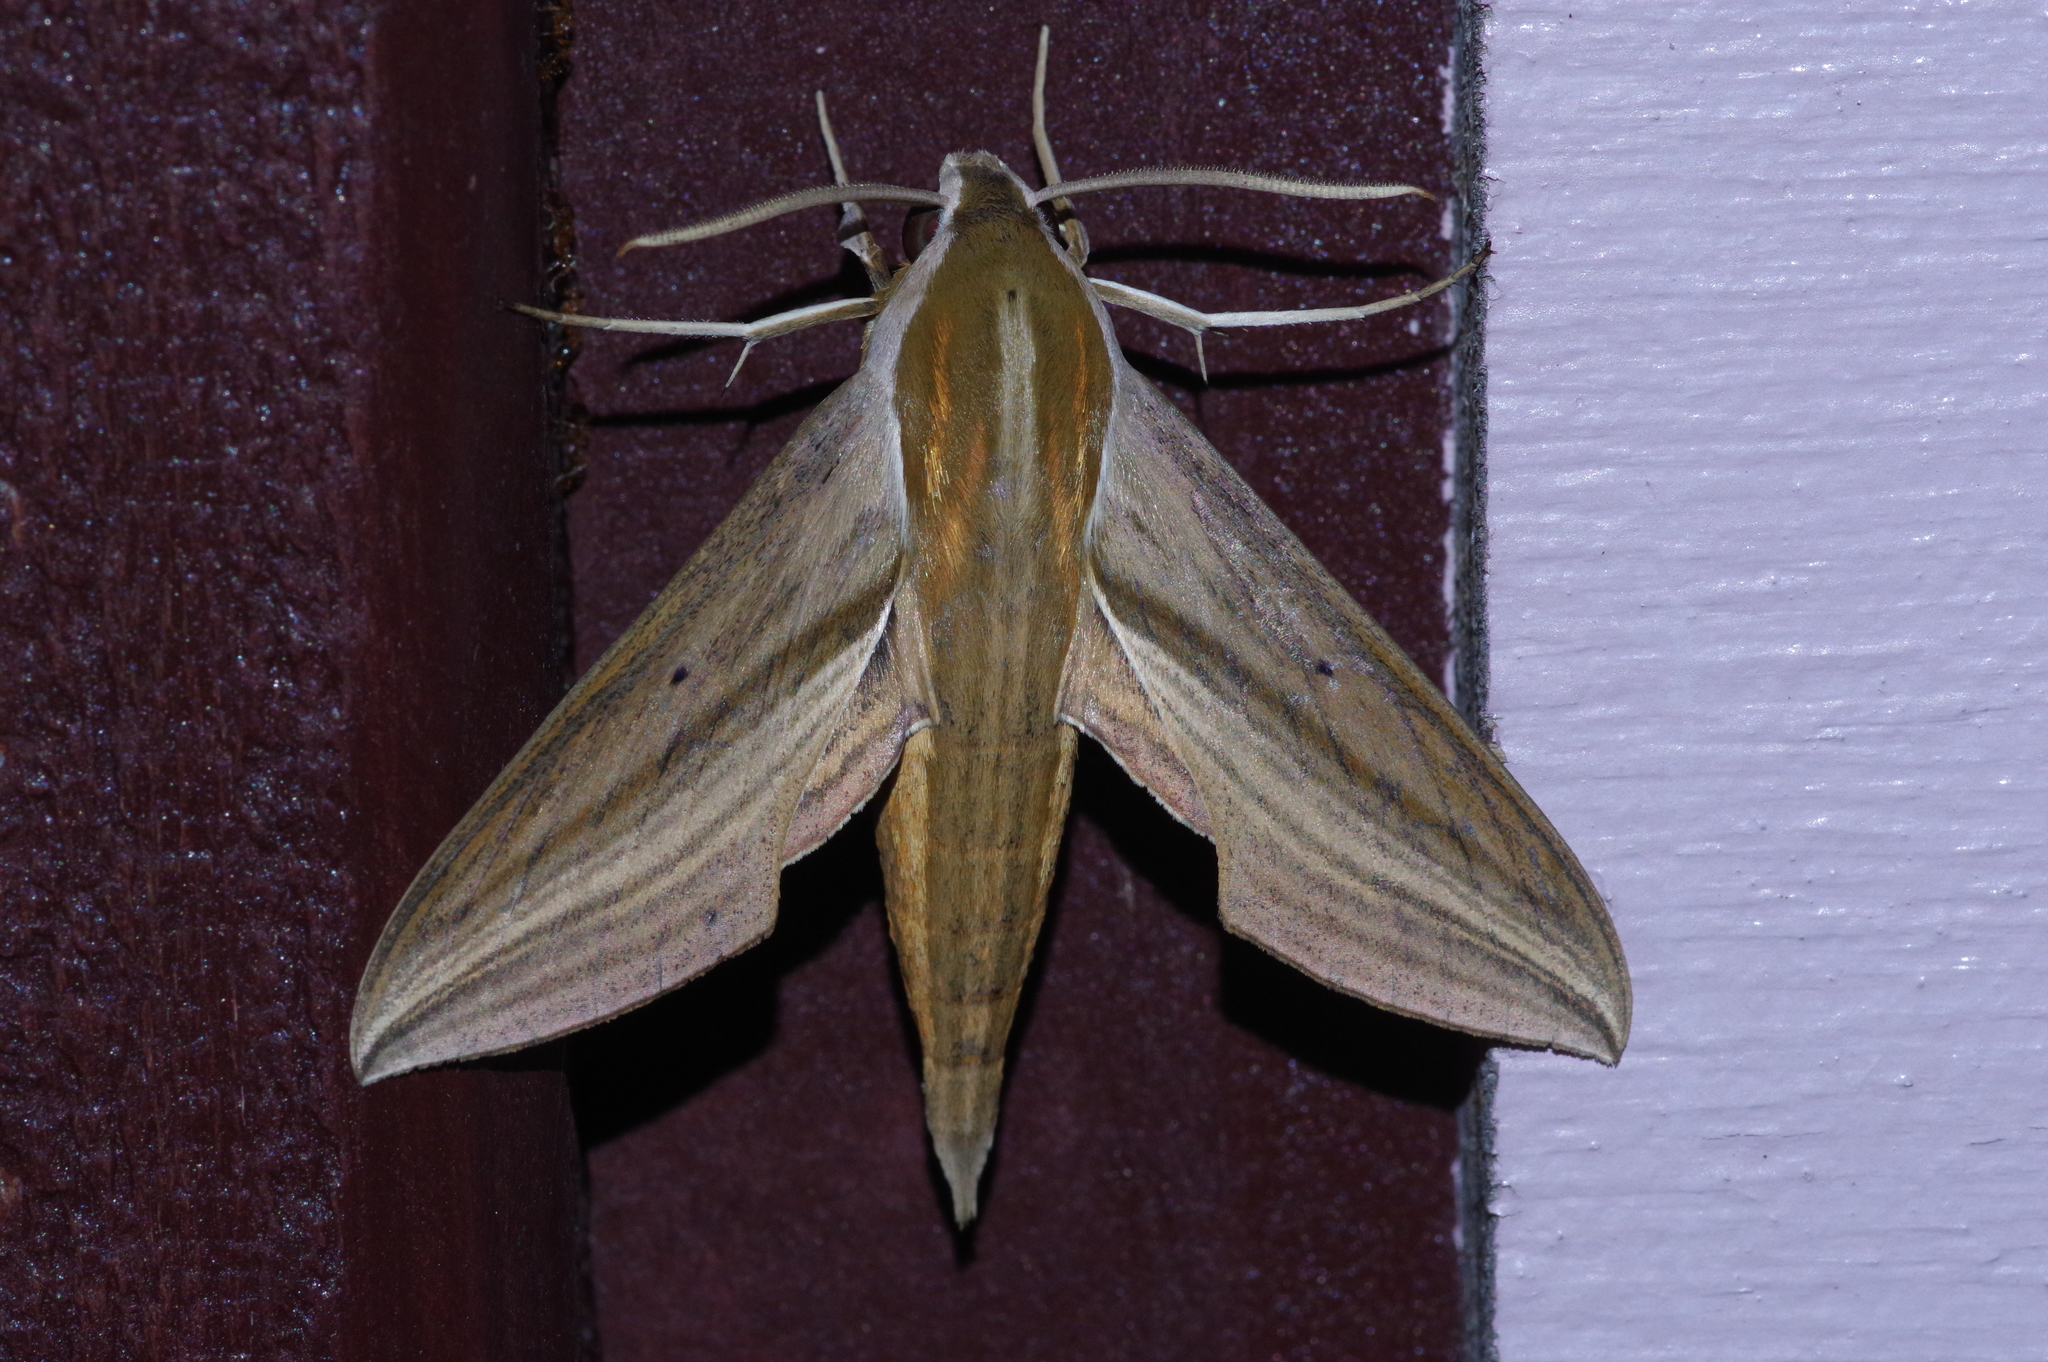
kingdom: Animalia
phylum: Arthropoda
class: Insecta
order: Lepidoptera
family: Sphingidae
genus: Theretra
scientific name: Theretra japonica
